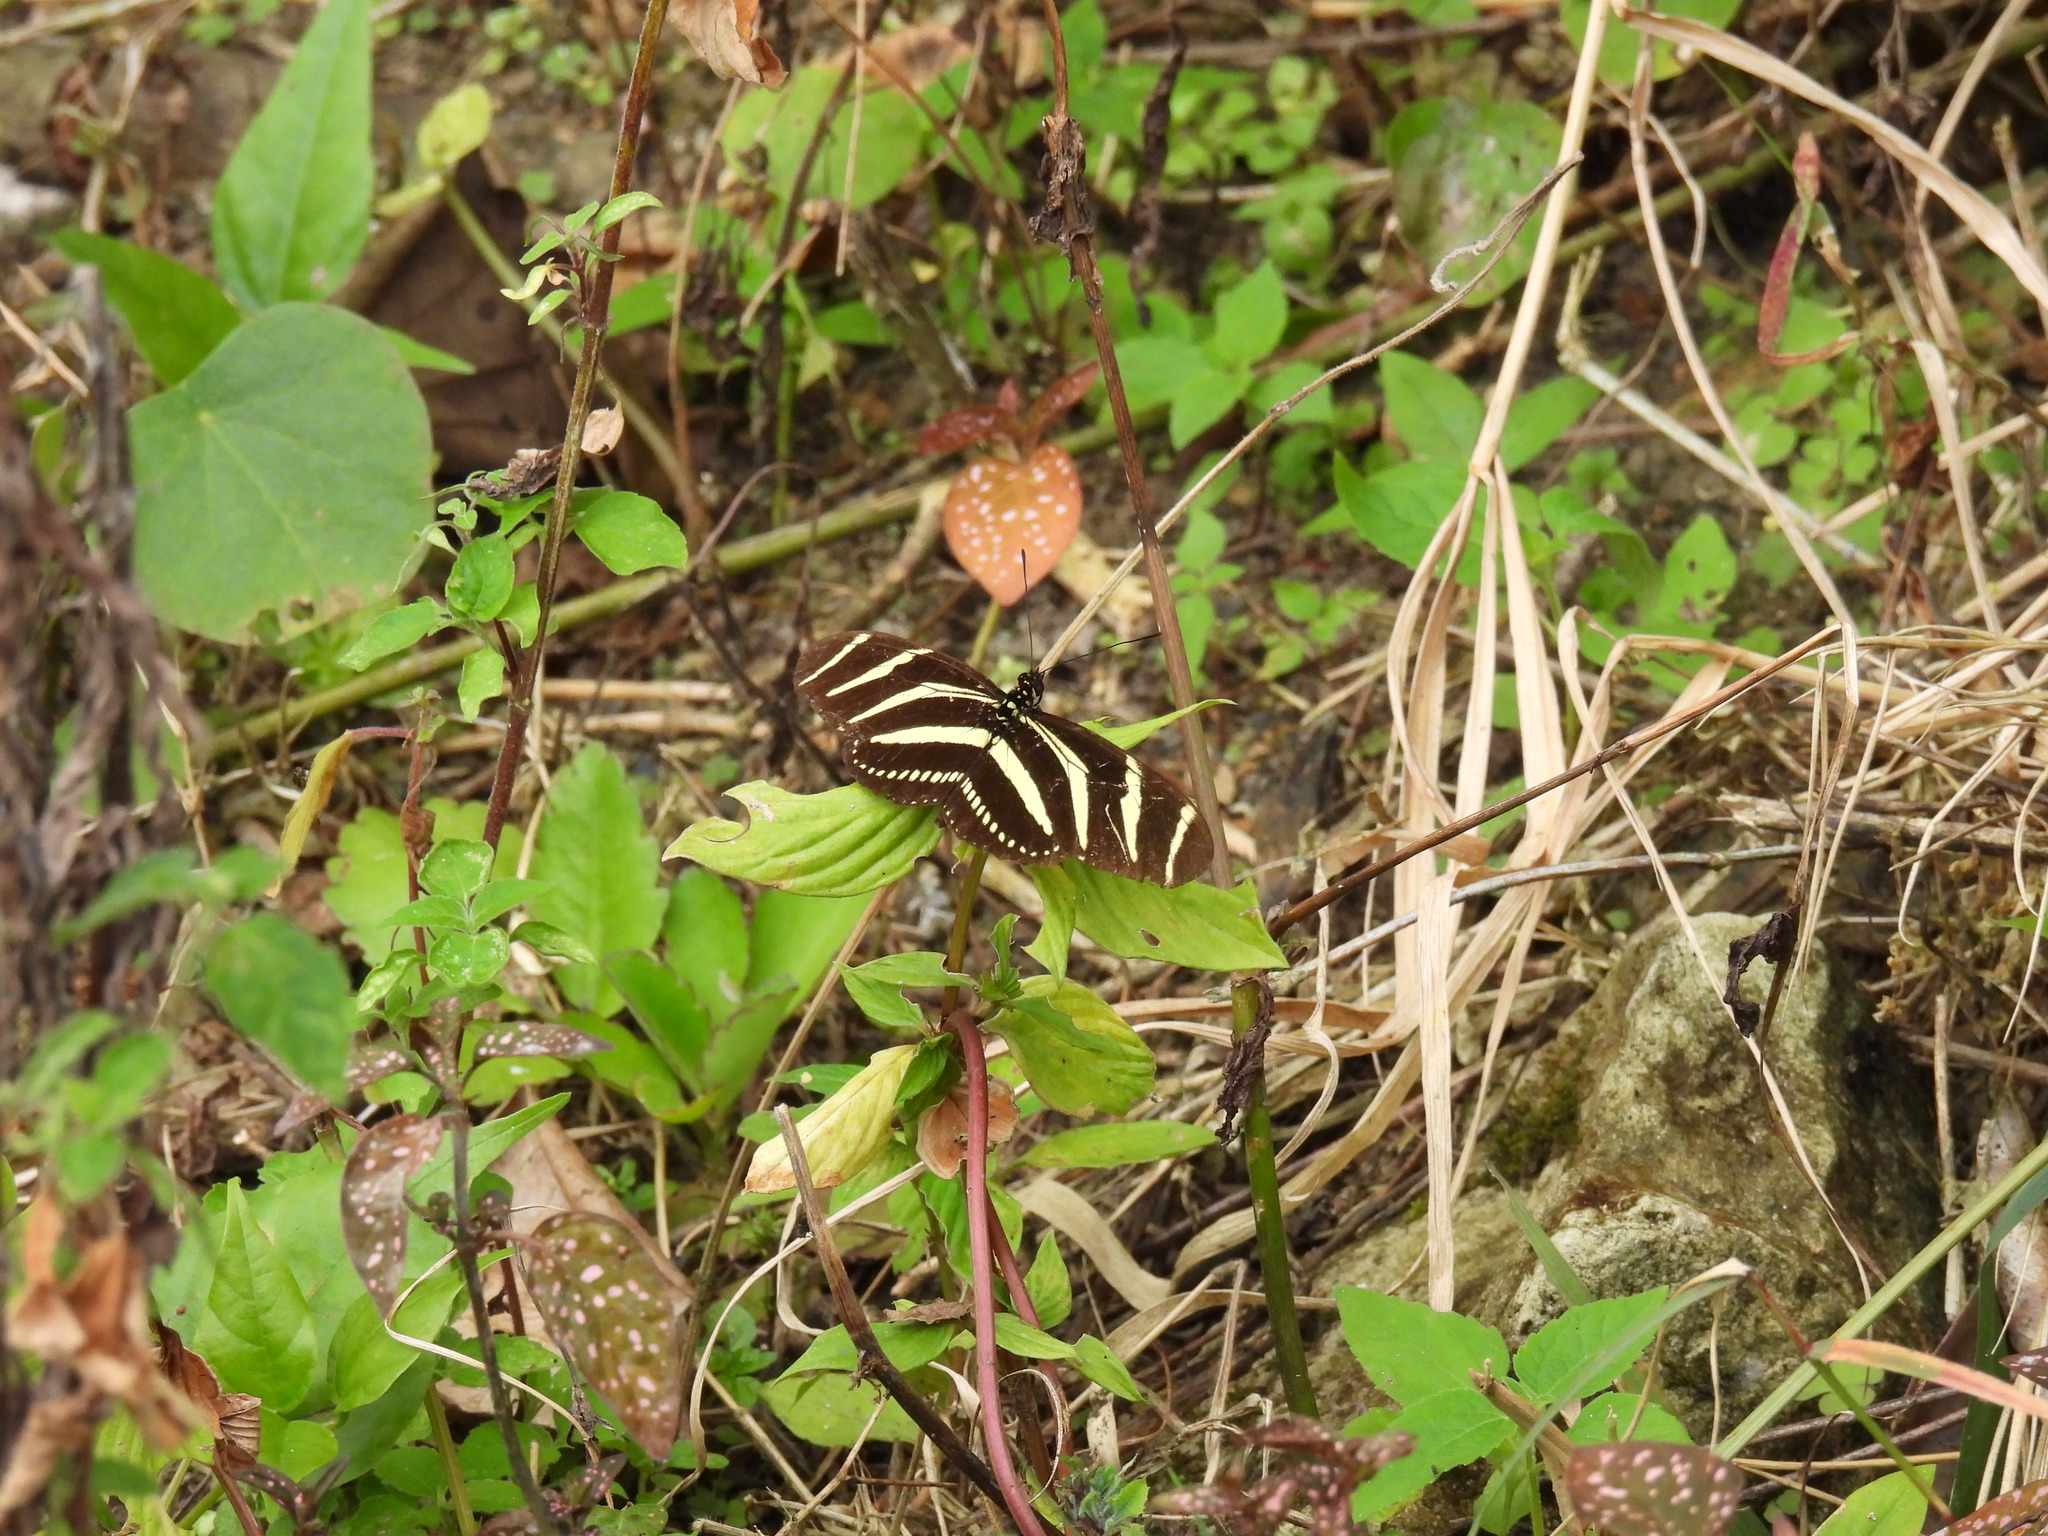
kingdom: Animalia
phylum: Arthropoda
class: Insecta
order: Lepidoptera
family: Nymphalidae
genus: Heliconius
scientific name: Heliconius charithonia
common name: Zebra long wing
